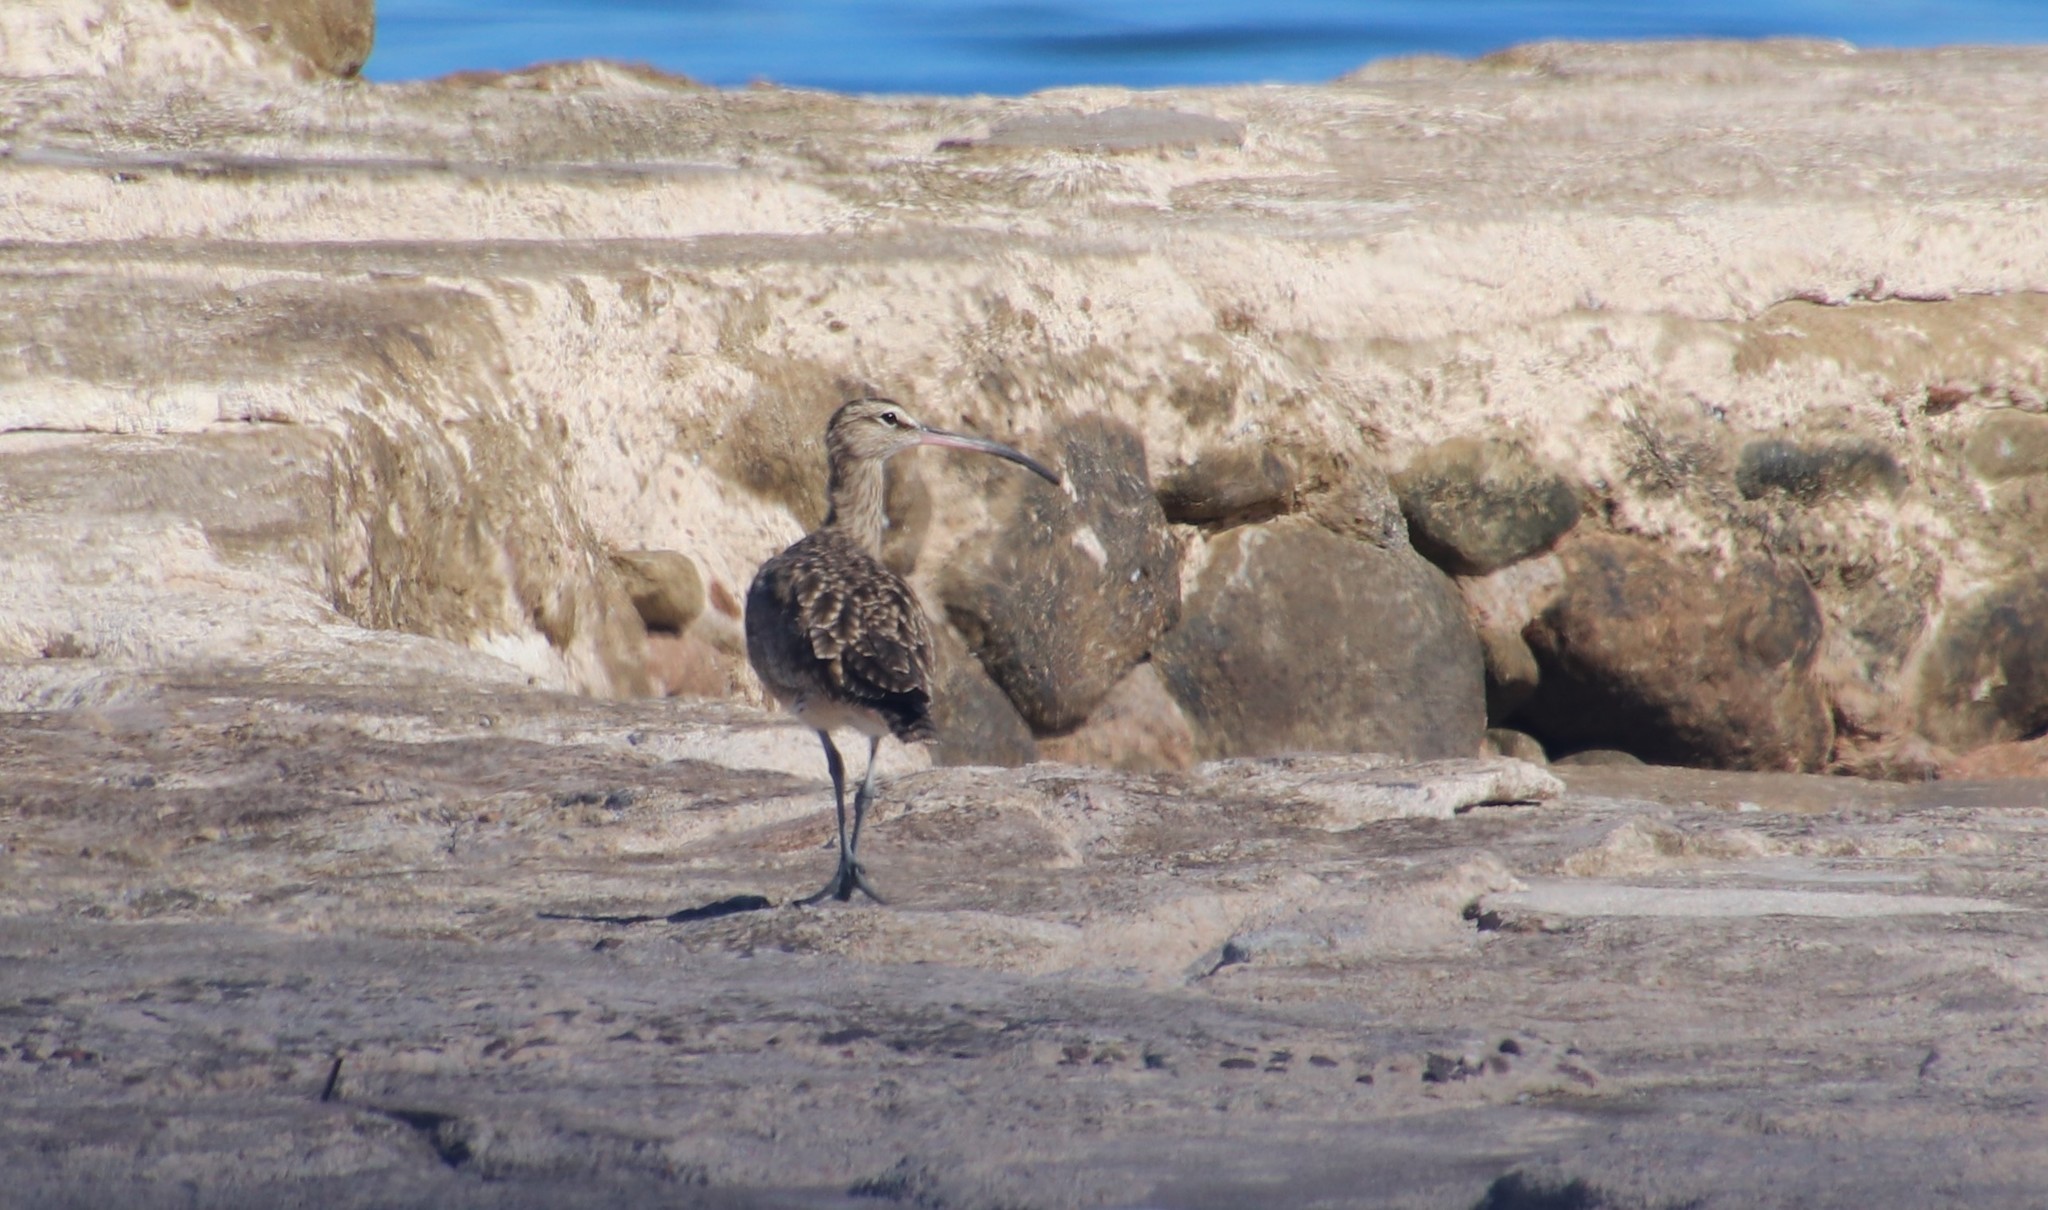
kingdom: Animalia
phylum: Chordata
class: Aves
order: Charadriiformes
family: Scolopacidae
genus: Numenius
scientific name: Numenius phaeopus
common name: Whimbrel
